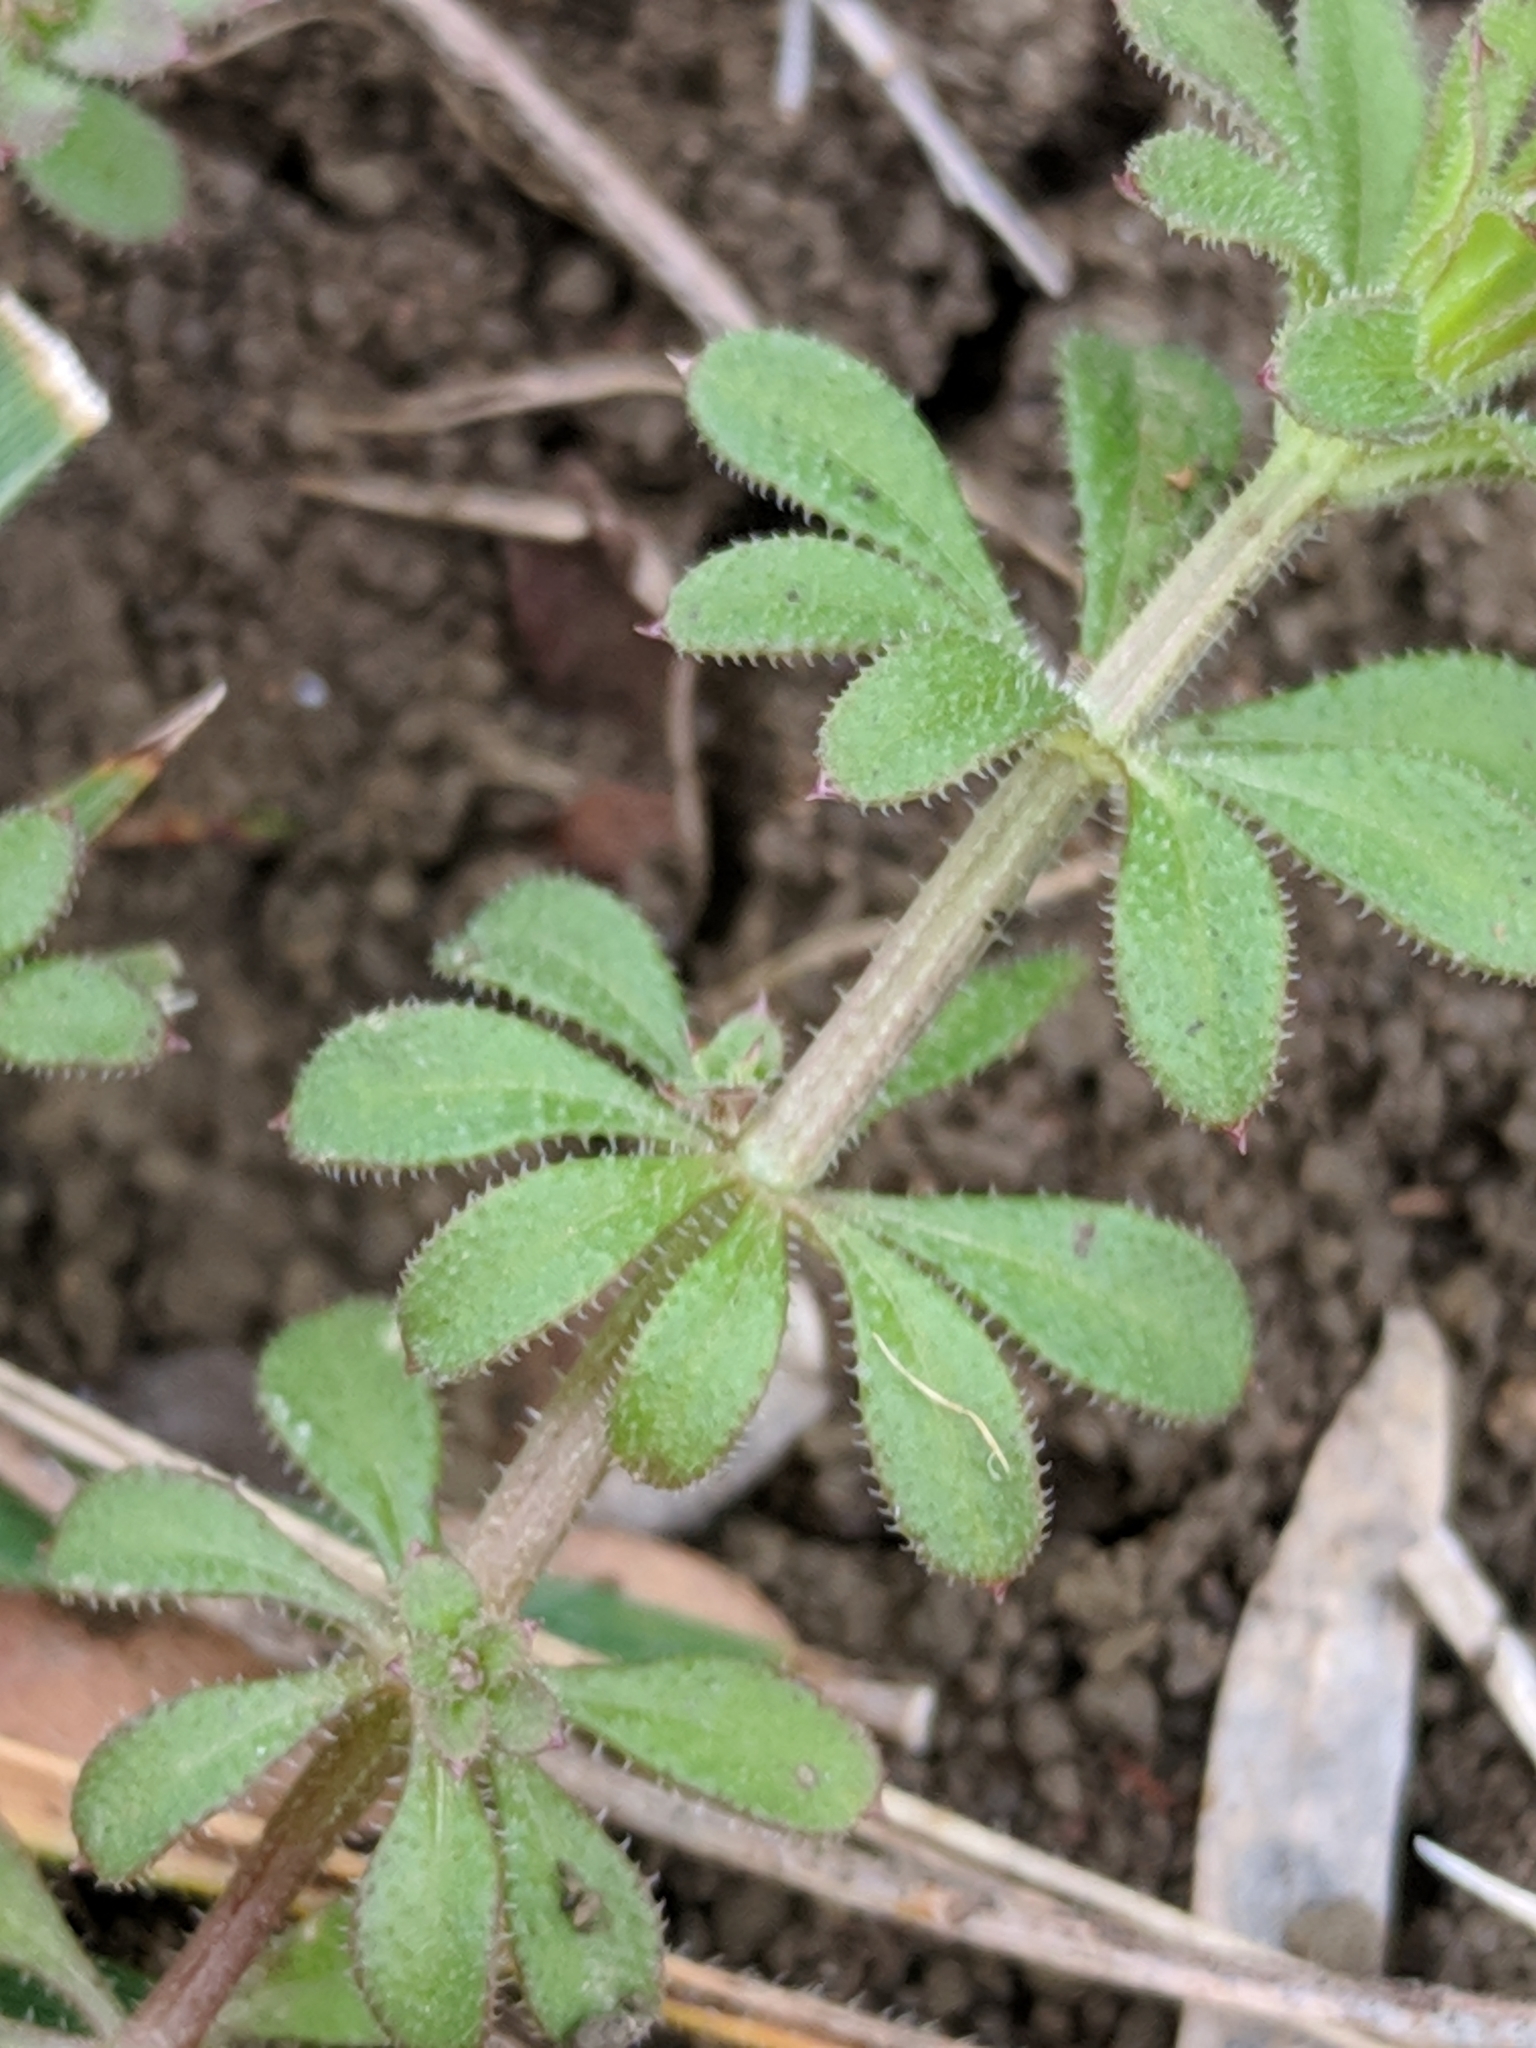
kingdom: Plantae
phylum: Tracheophyta
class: Magnoliopsida
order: Gentianales
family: Rubiaceae
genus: Galium
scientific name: Galium aparine
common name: Cleavers
